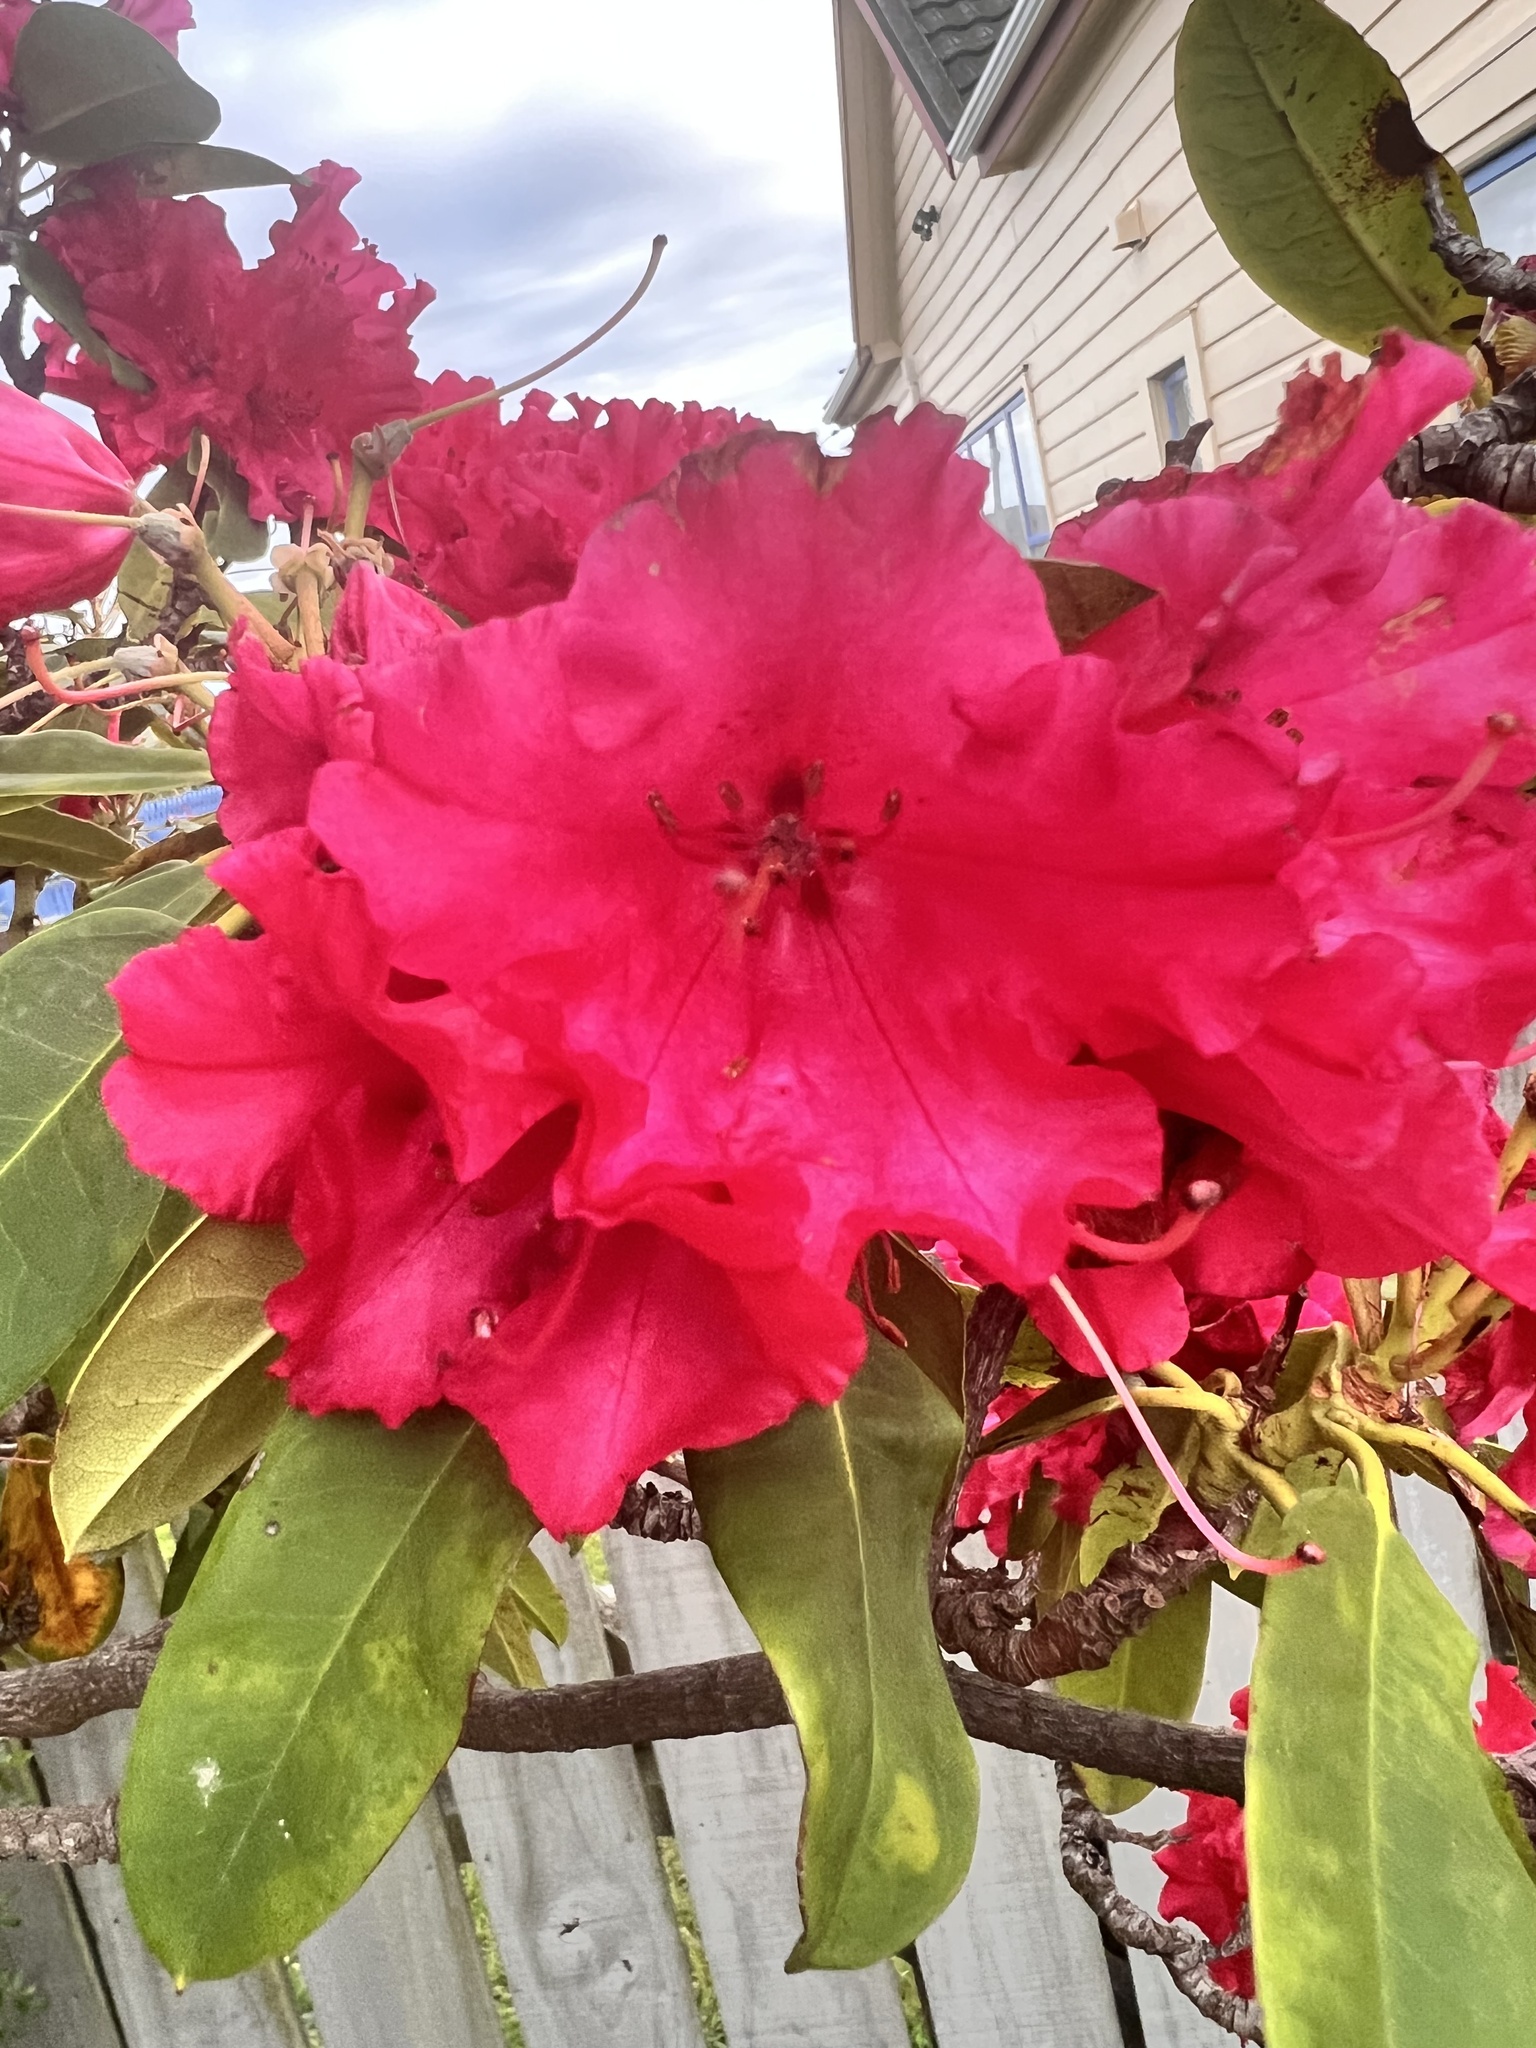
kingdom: Plantae
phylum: Tracheophyta
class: Magnoliopsida
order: Ericales
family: Ericaceae
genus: Rhododendron
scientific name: Rhododendron ponticum
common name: Rhododendron
